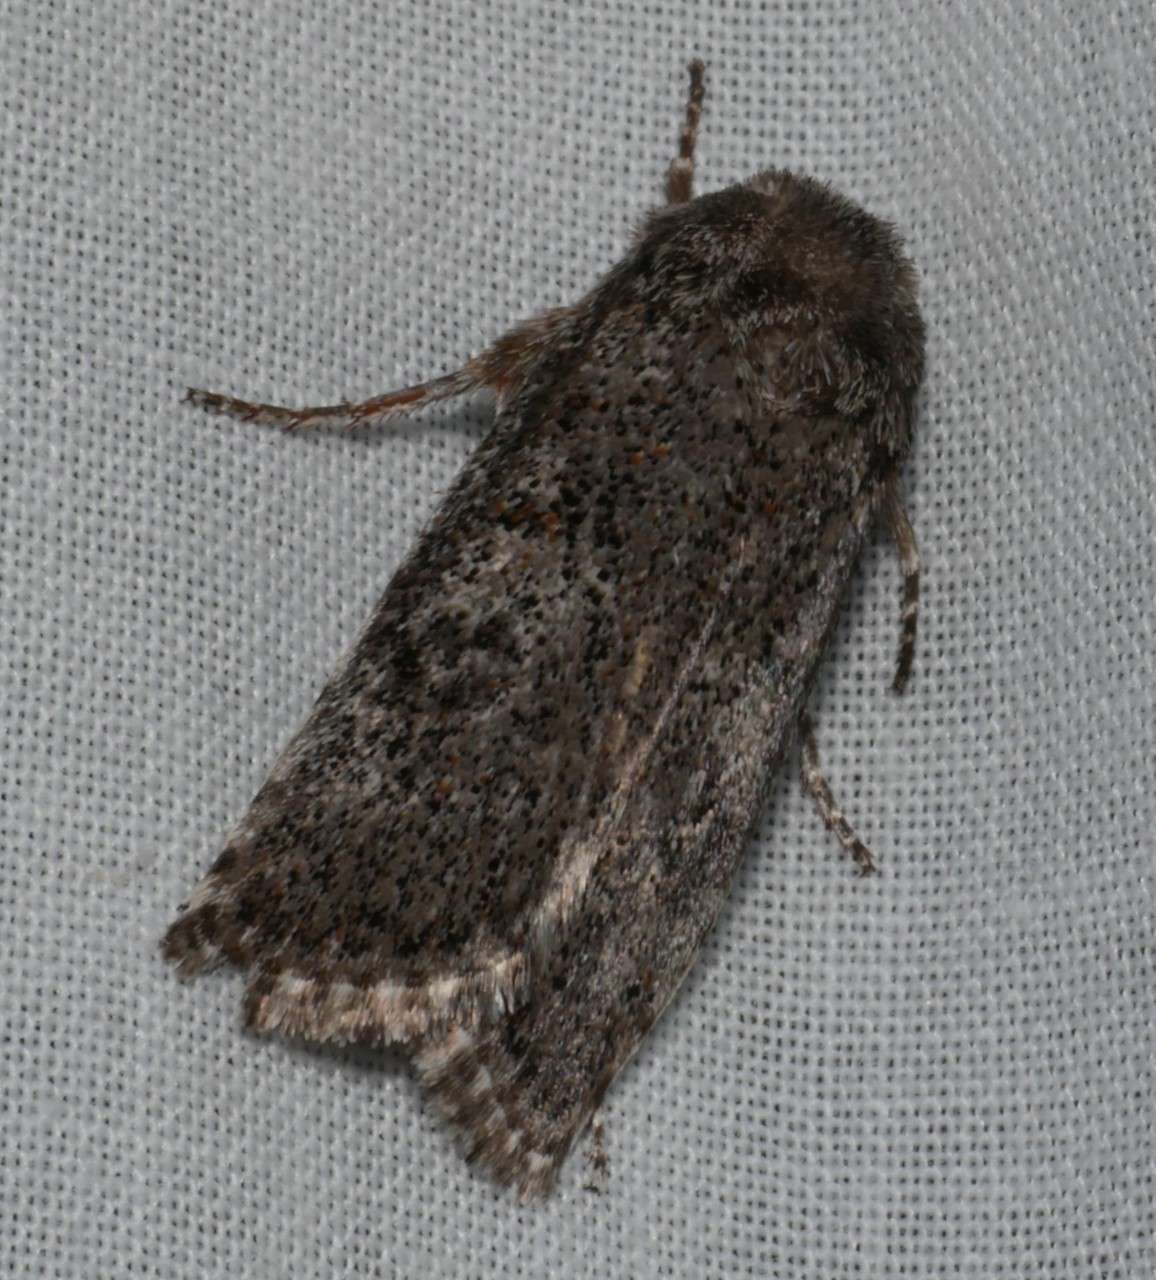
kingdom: Animalia
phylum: Arthropoda
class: Insecta
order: Lepidoptera
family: Xyloryctidae
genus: Cryptophasa
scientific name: Cryptophasa irrorata
